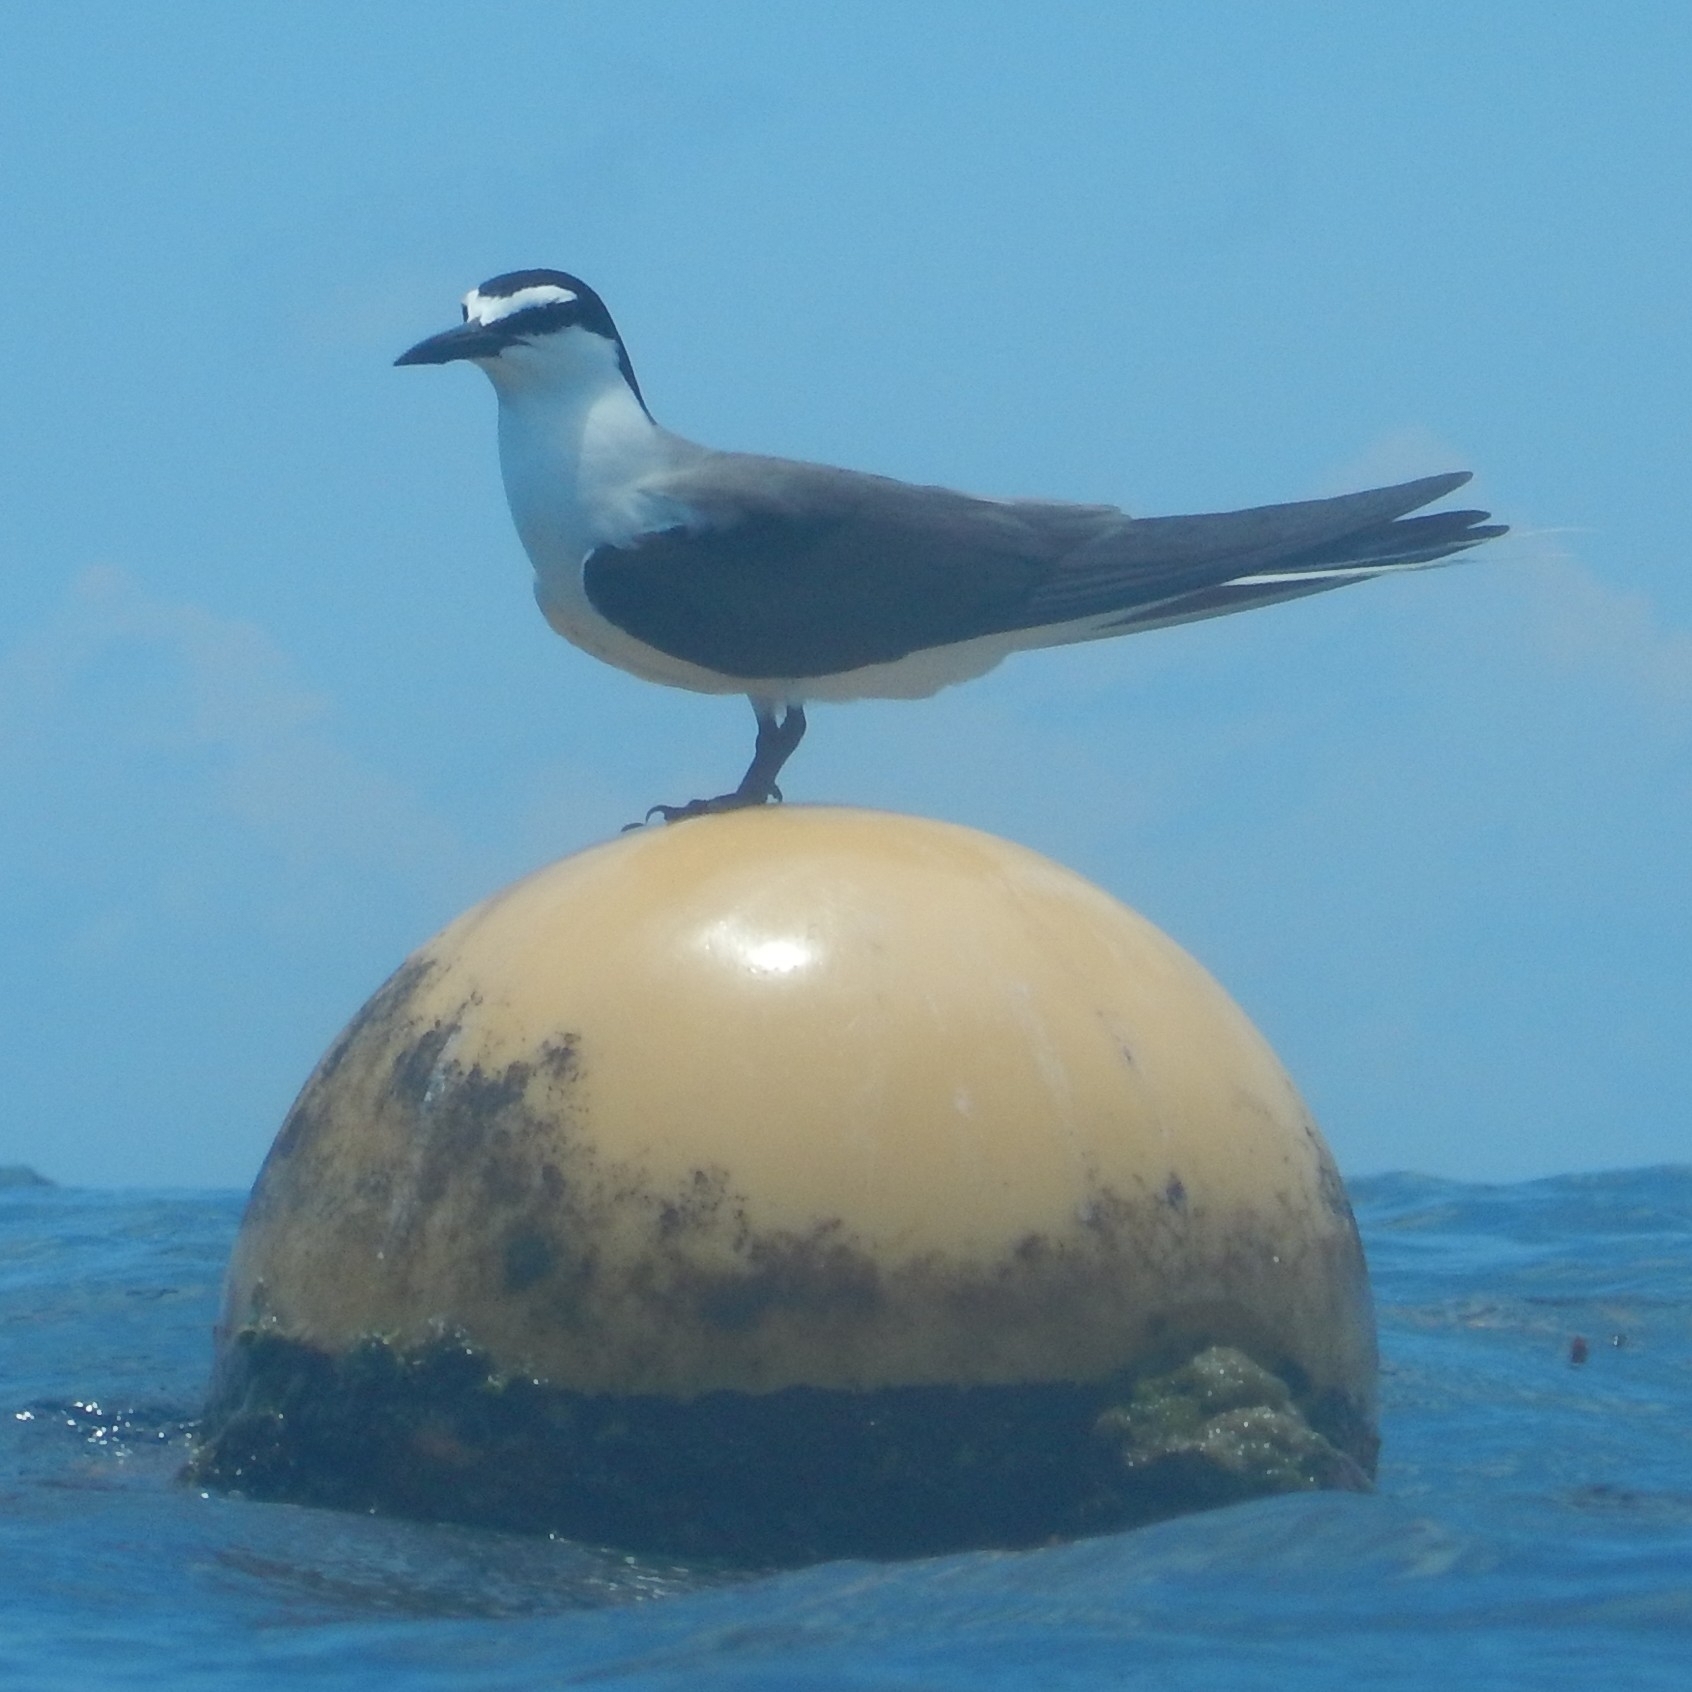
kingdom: Animalia
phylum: Chordata
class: Aves
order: Charadriiformes
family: Laridae
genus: Onychoprion
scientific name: Onychoprion anaethetus
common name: Bridled tern
